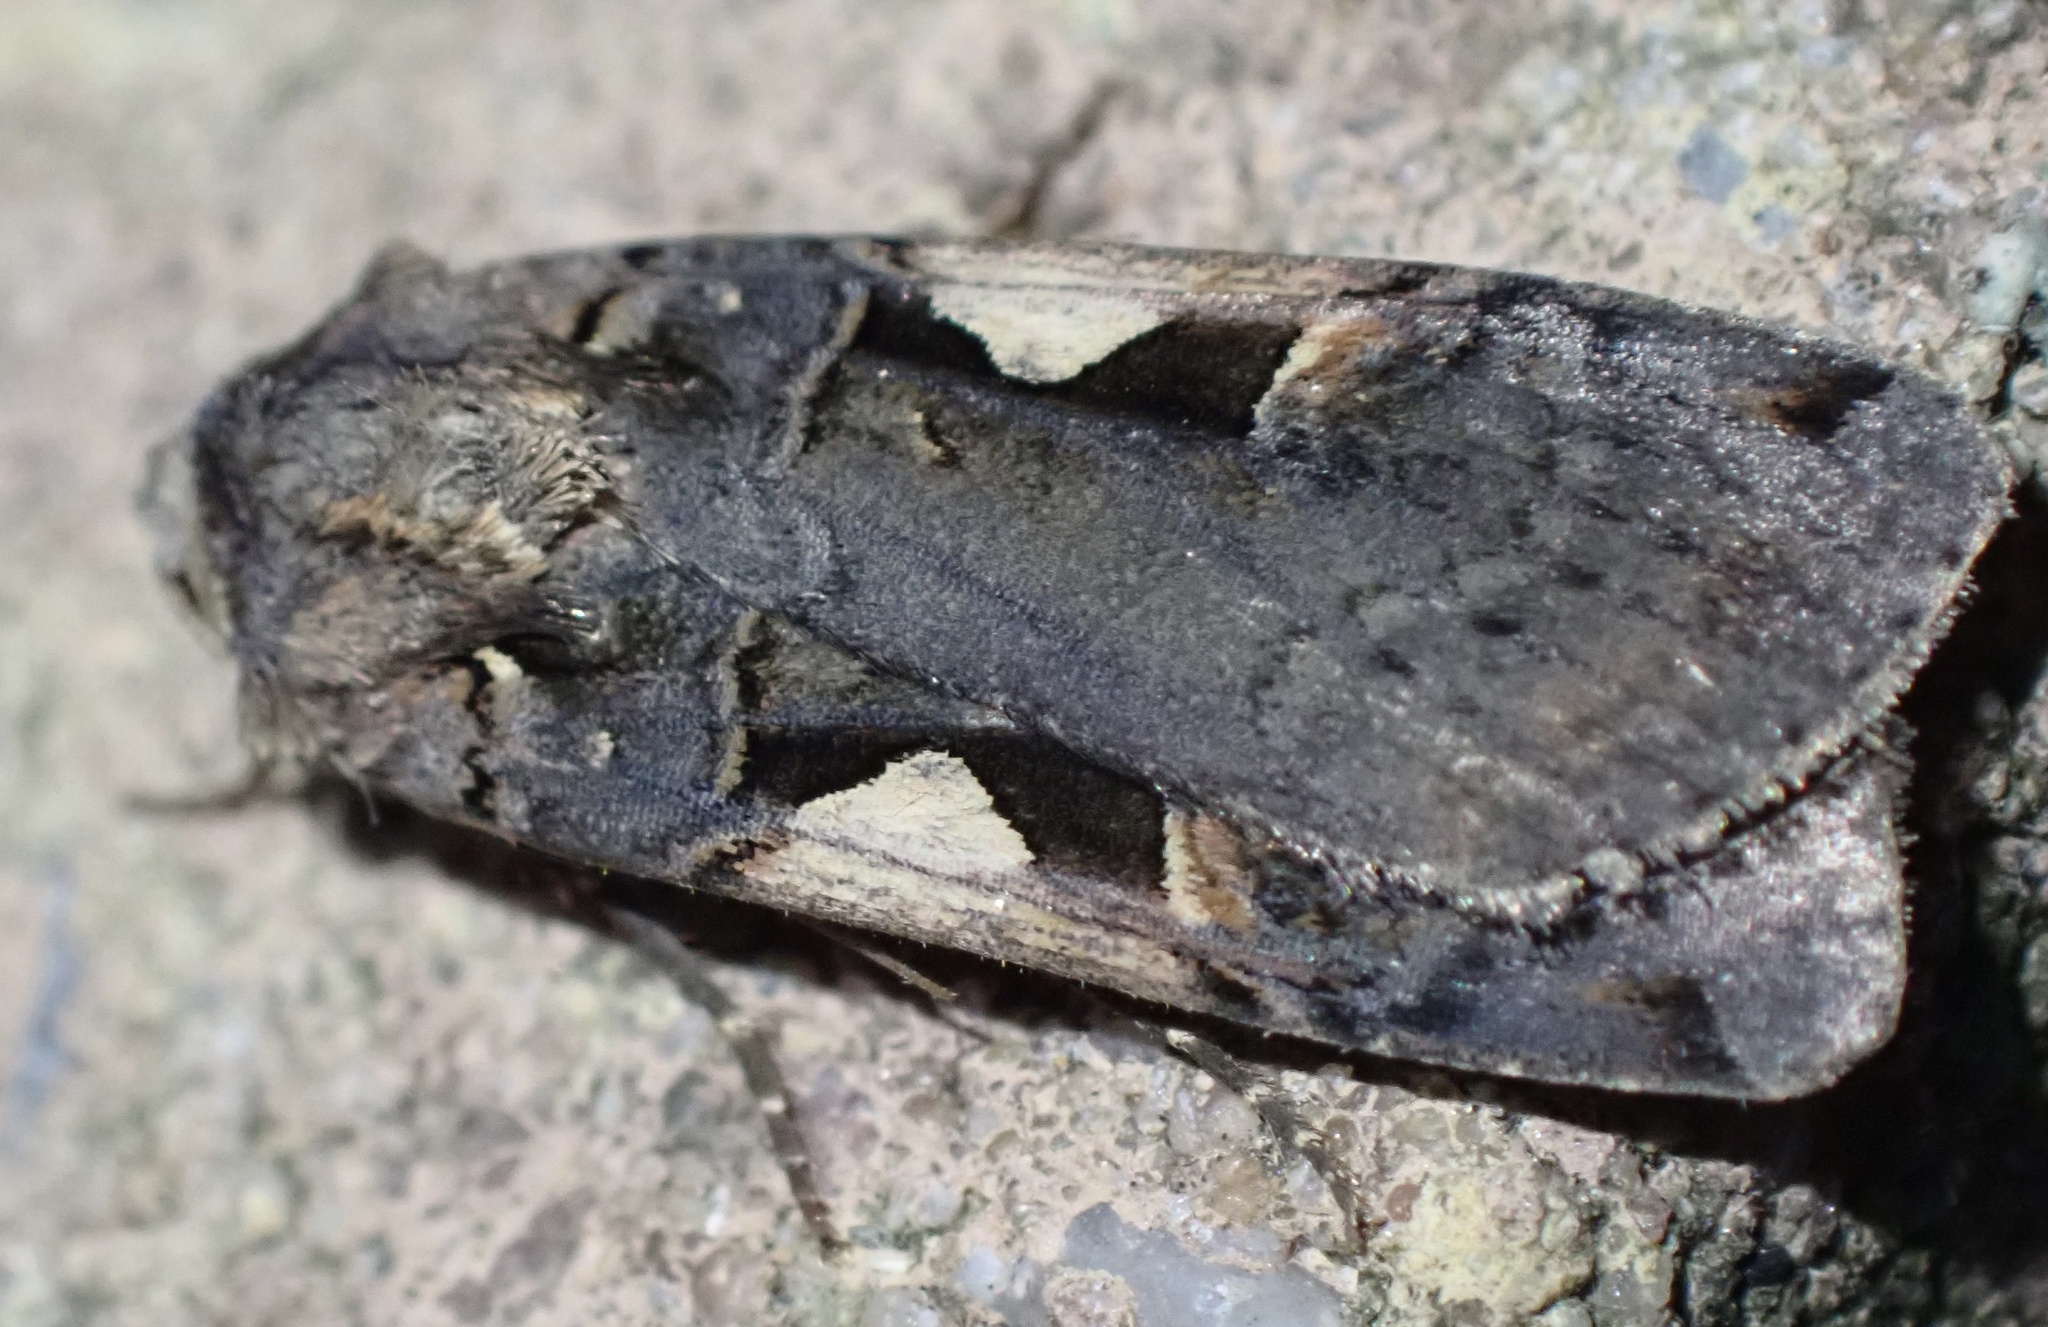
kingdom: Animalia
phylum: Arthropoda
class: Insecta
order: Lepidoptera
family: Noctuidae
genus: Xestia
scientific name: Xestia c-nigrum
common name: Setaceous hebrew character
